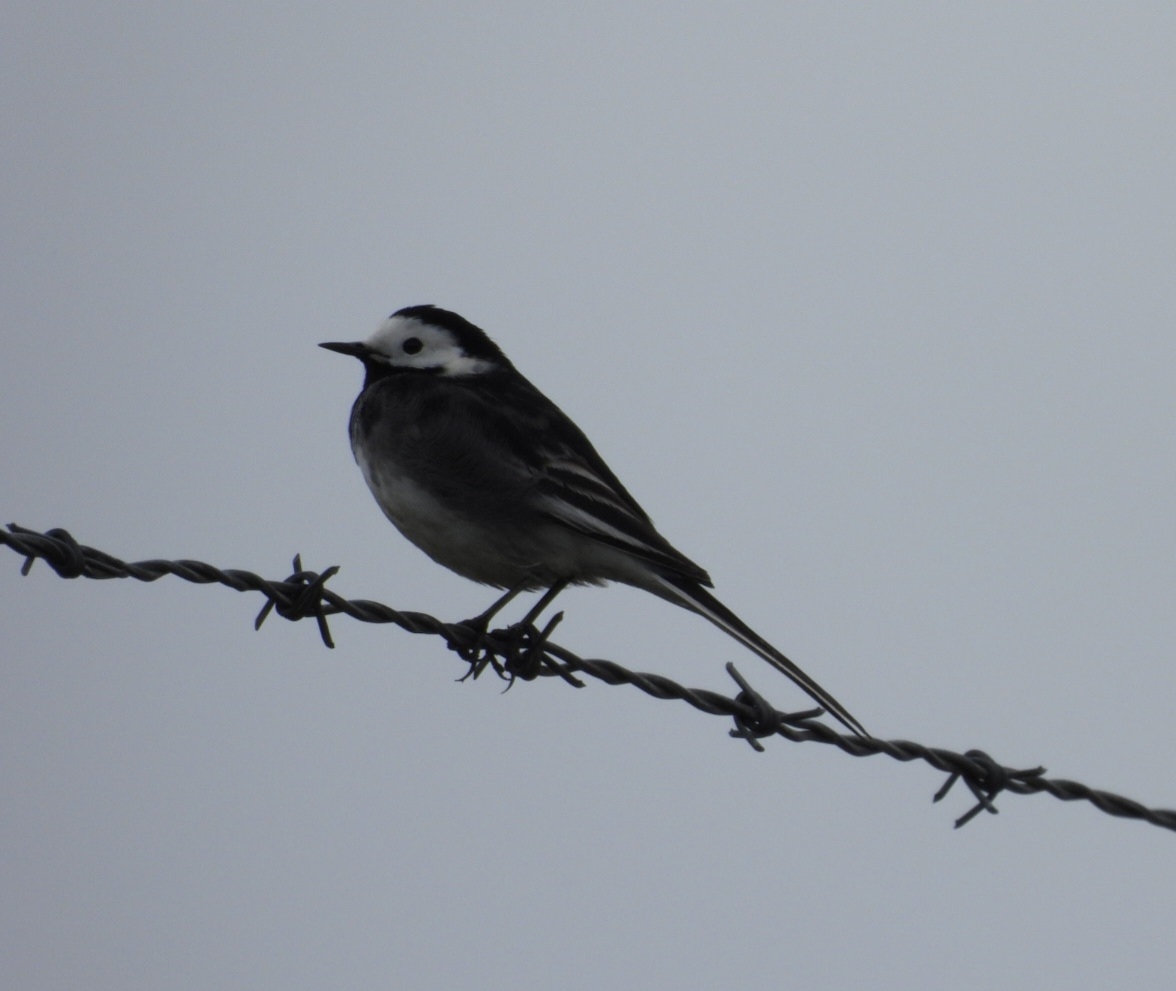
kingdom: Animalia
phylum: Chordata
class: Aves
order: Passeriformes
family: Motacillidae
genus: Motacilla
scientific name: Motacilla alba
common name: White wagtail
